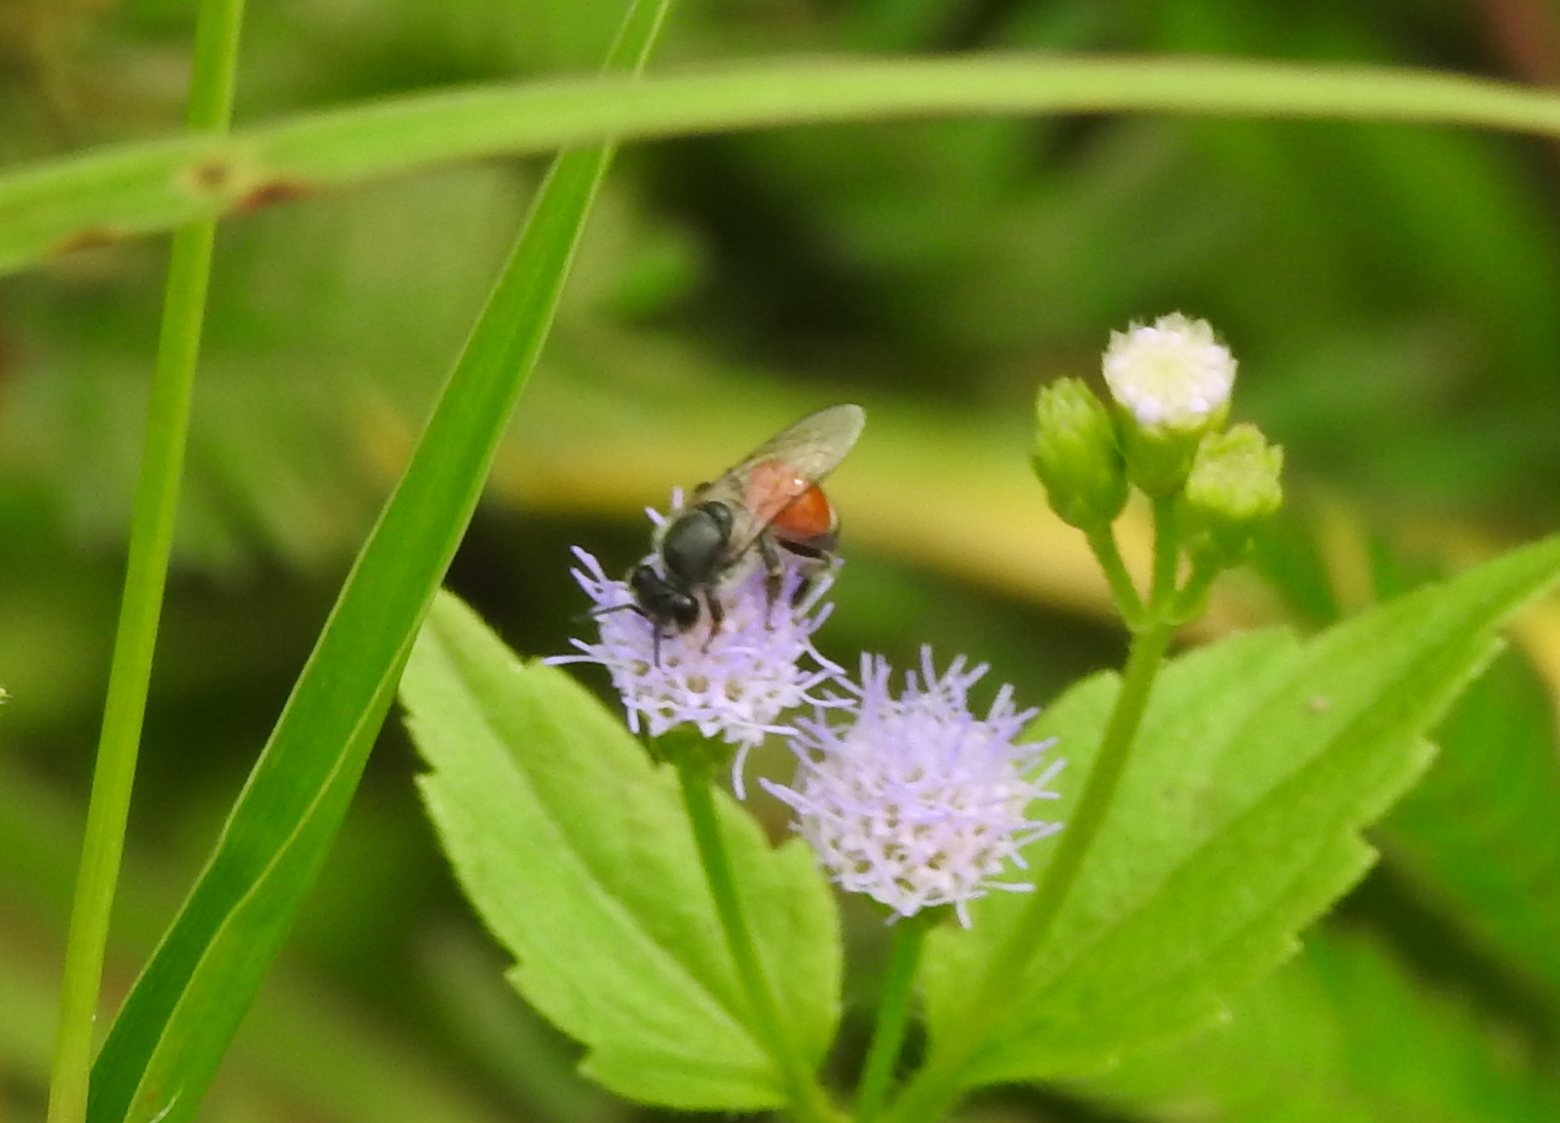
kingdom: Animalia
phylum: Arthropoda
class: Insecta
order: Hymenoptera
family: Apidae
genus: Apis
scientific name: Apis florea
